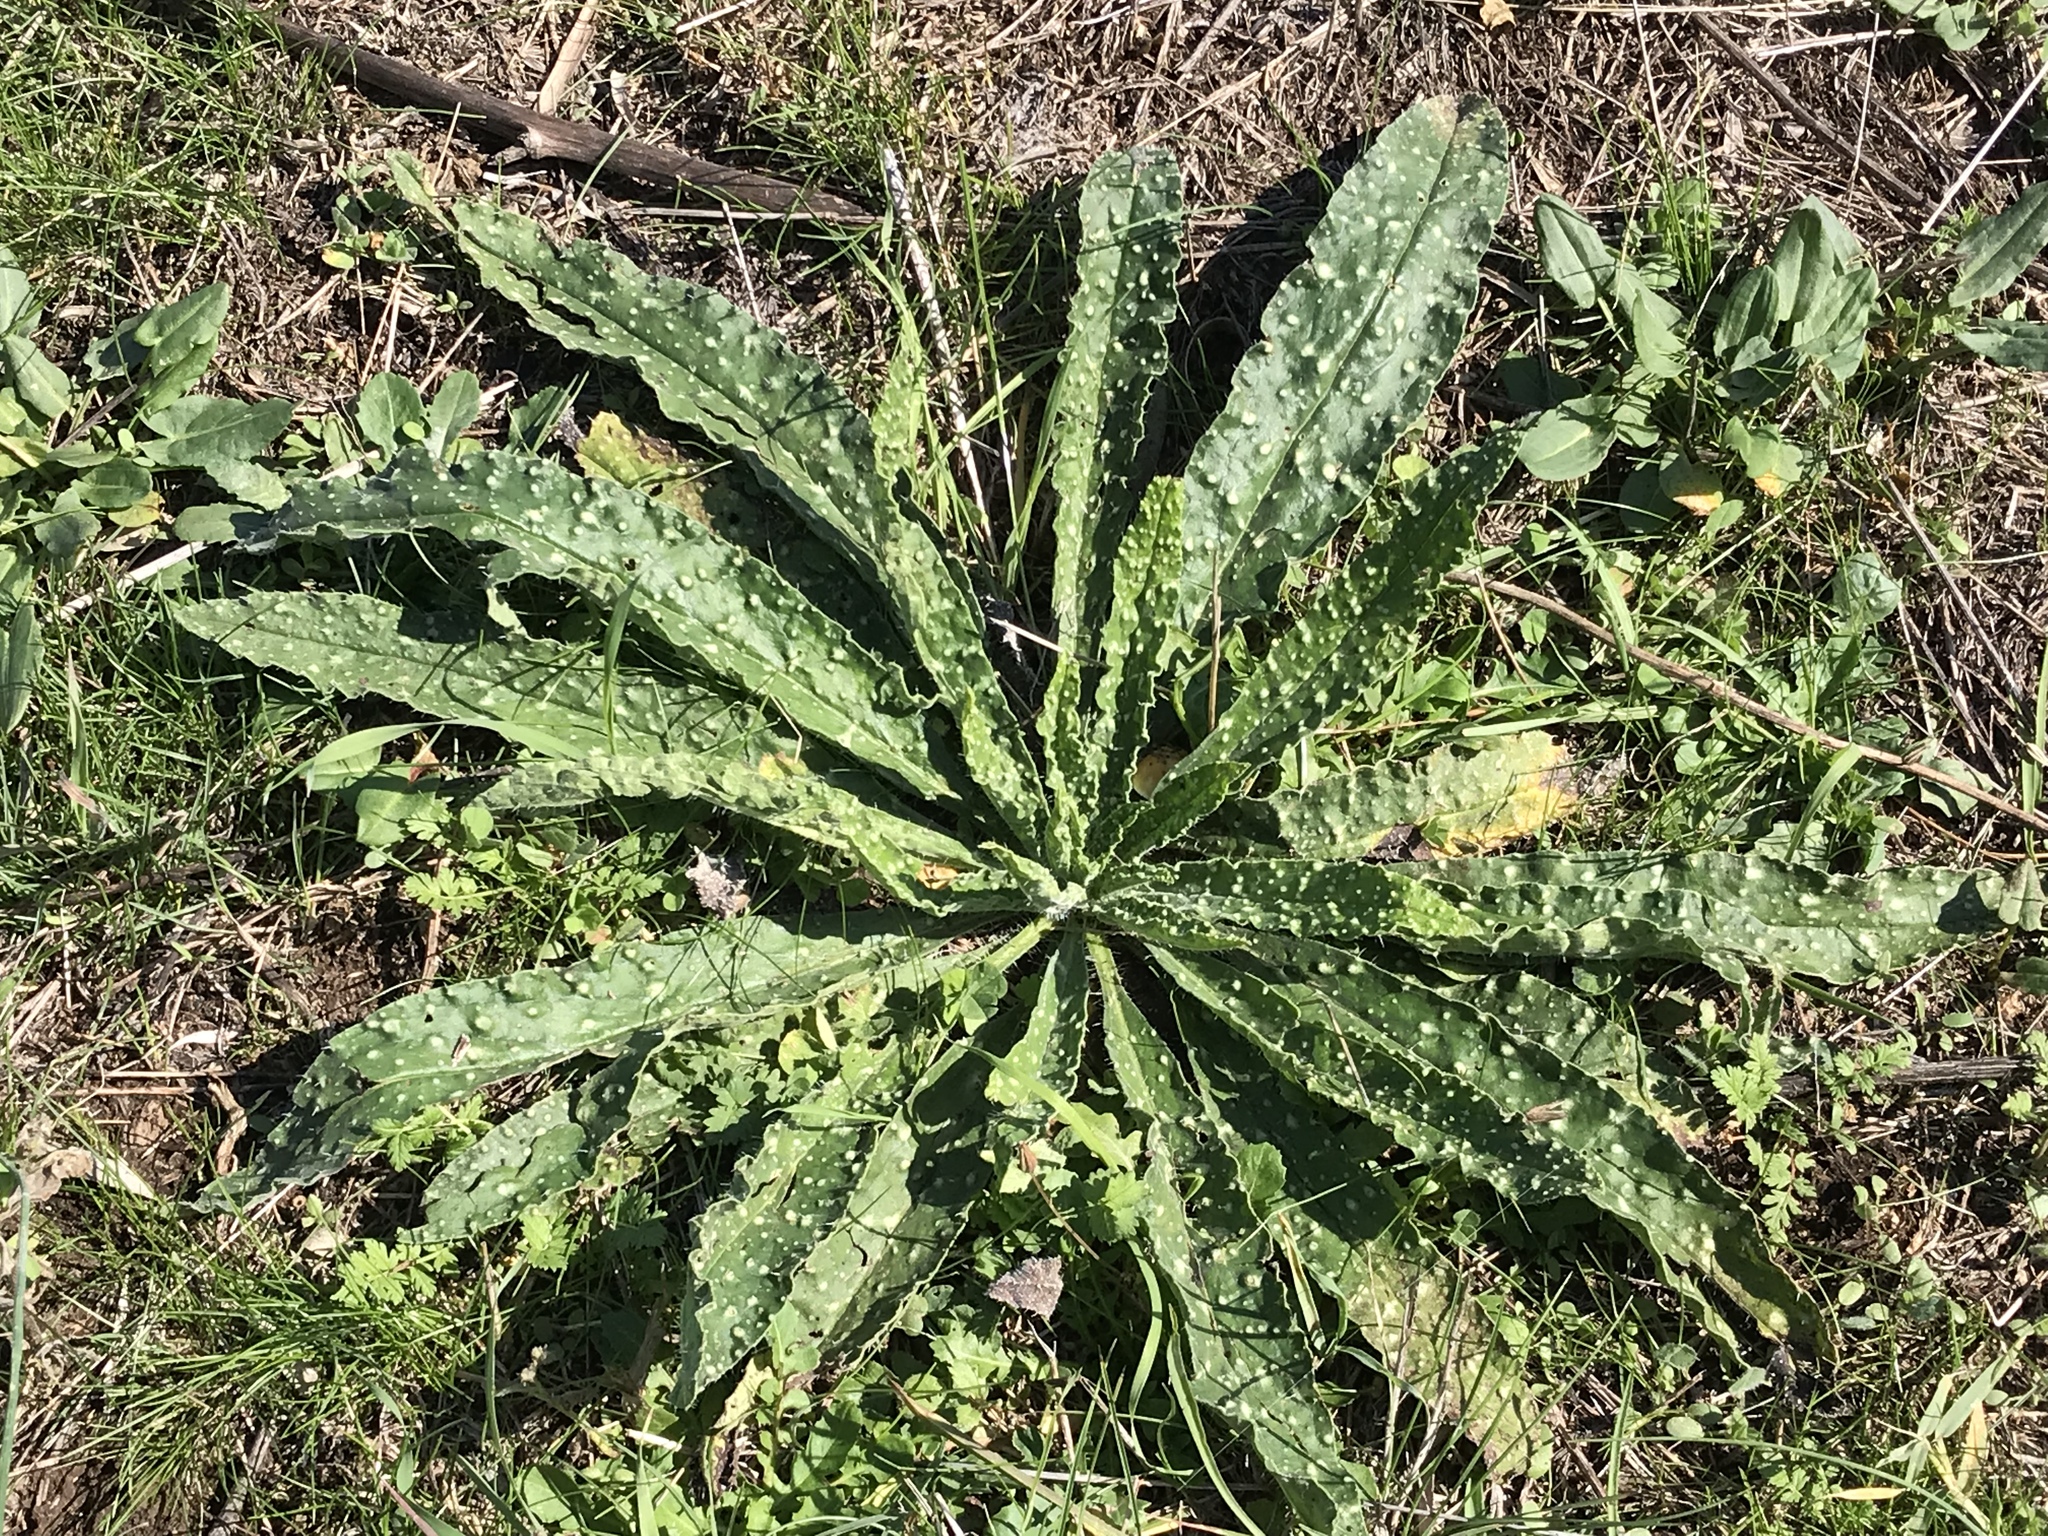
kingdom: Plantae
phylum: Tracheophyta
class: Magnoliopsida
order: Asterales
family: Asteraceae
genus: Helminthotheca
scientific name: Helminthotheca echioides
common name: Ox-tongue
